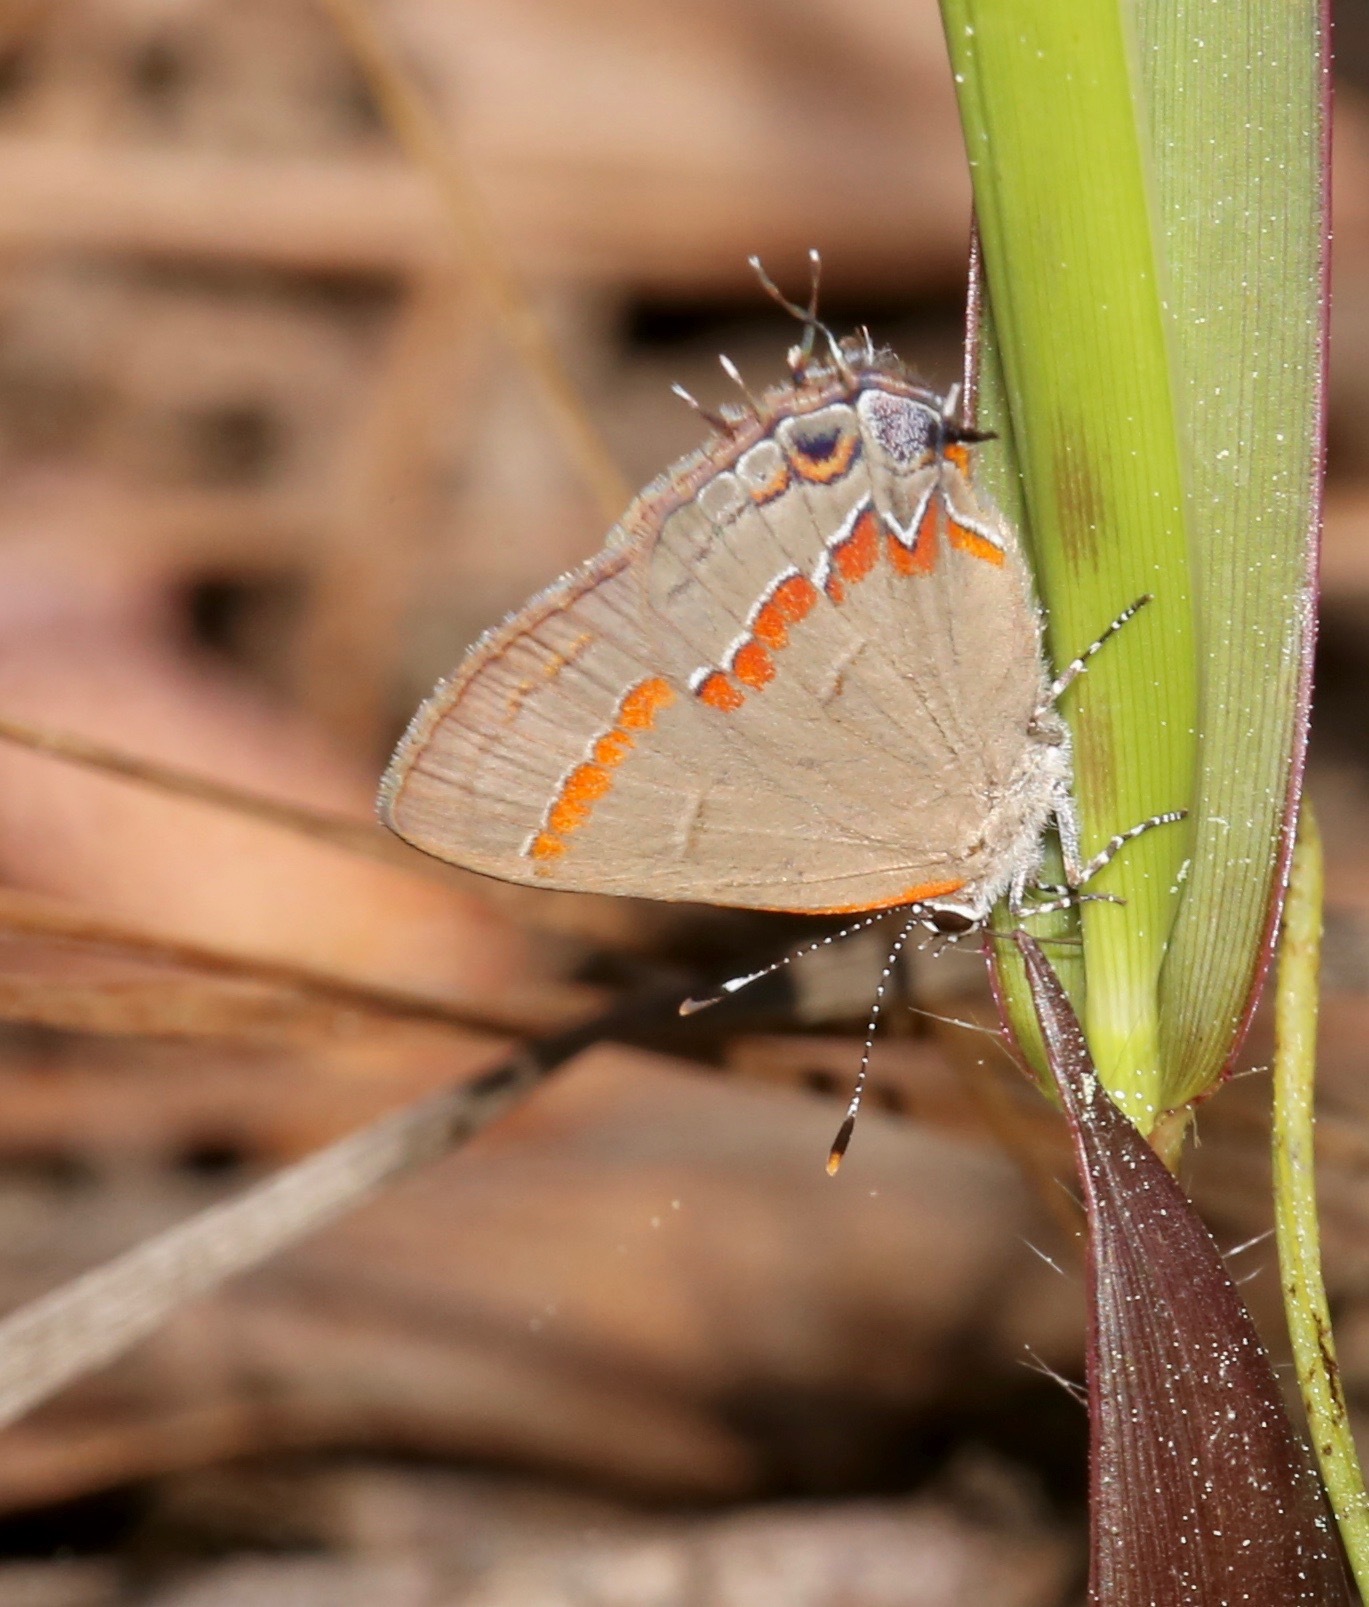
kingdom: Animalia
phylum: Arthropoda
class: Insecta
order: Lepidoptera
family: Lycaenidae
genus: Calycopis
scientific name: Calycopis cecrops
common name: Red-banded hairstreak
